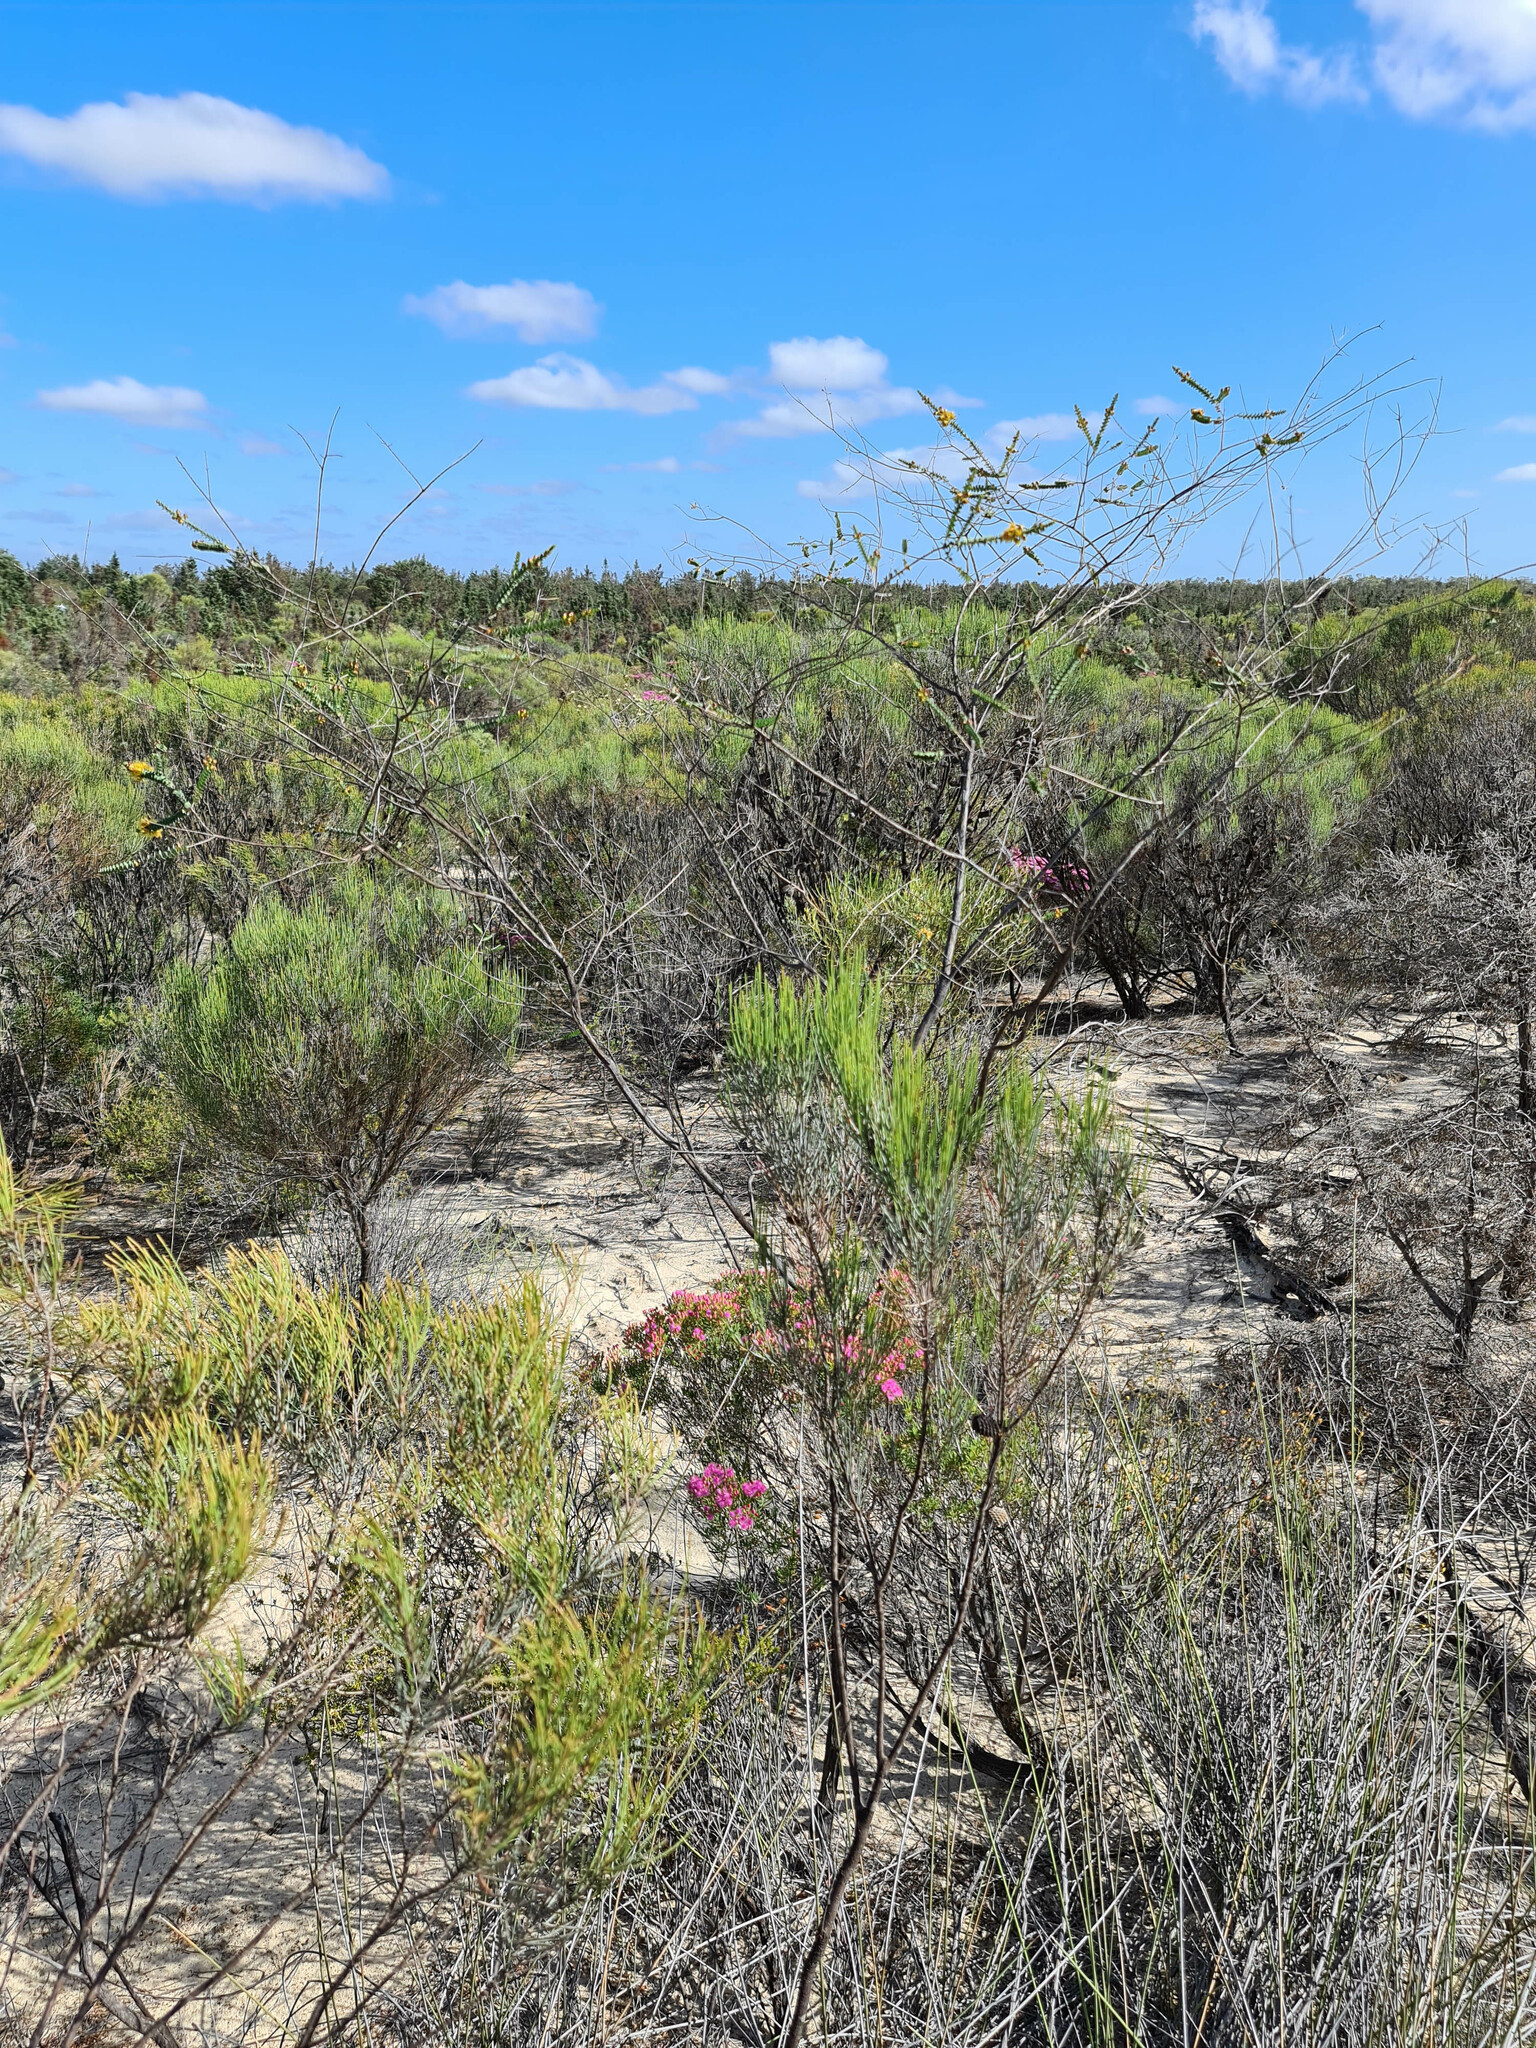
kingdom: Plantae
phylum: Tracheophyta
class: Magnoliopsida
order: Myrtales
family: Myrtaceae
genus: Verticordia
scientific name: Verticordia chrysostachys
